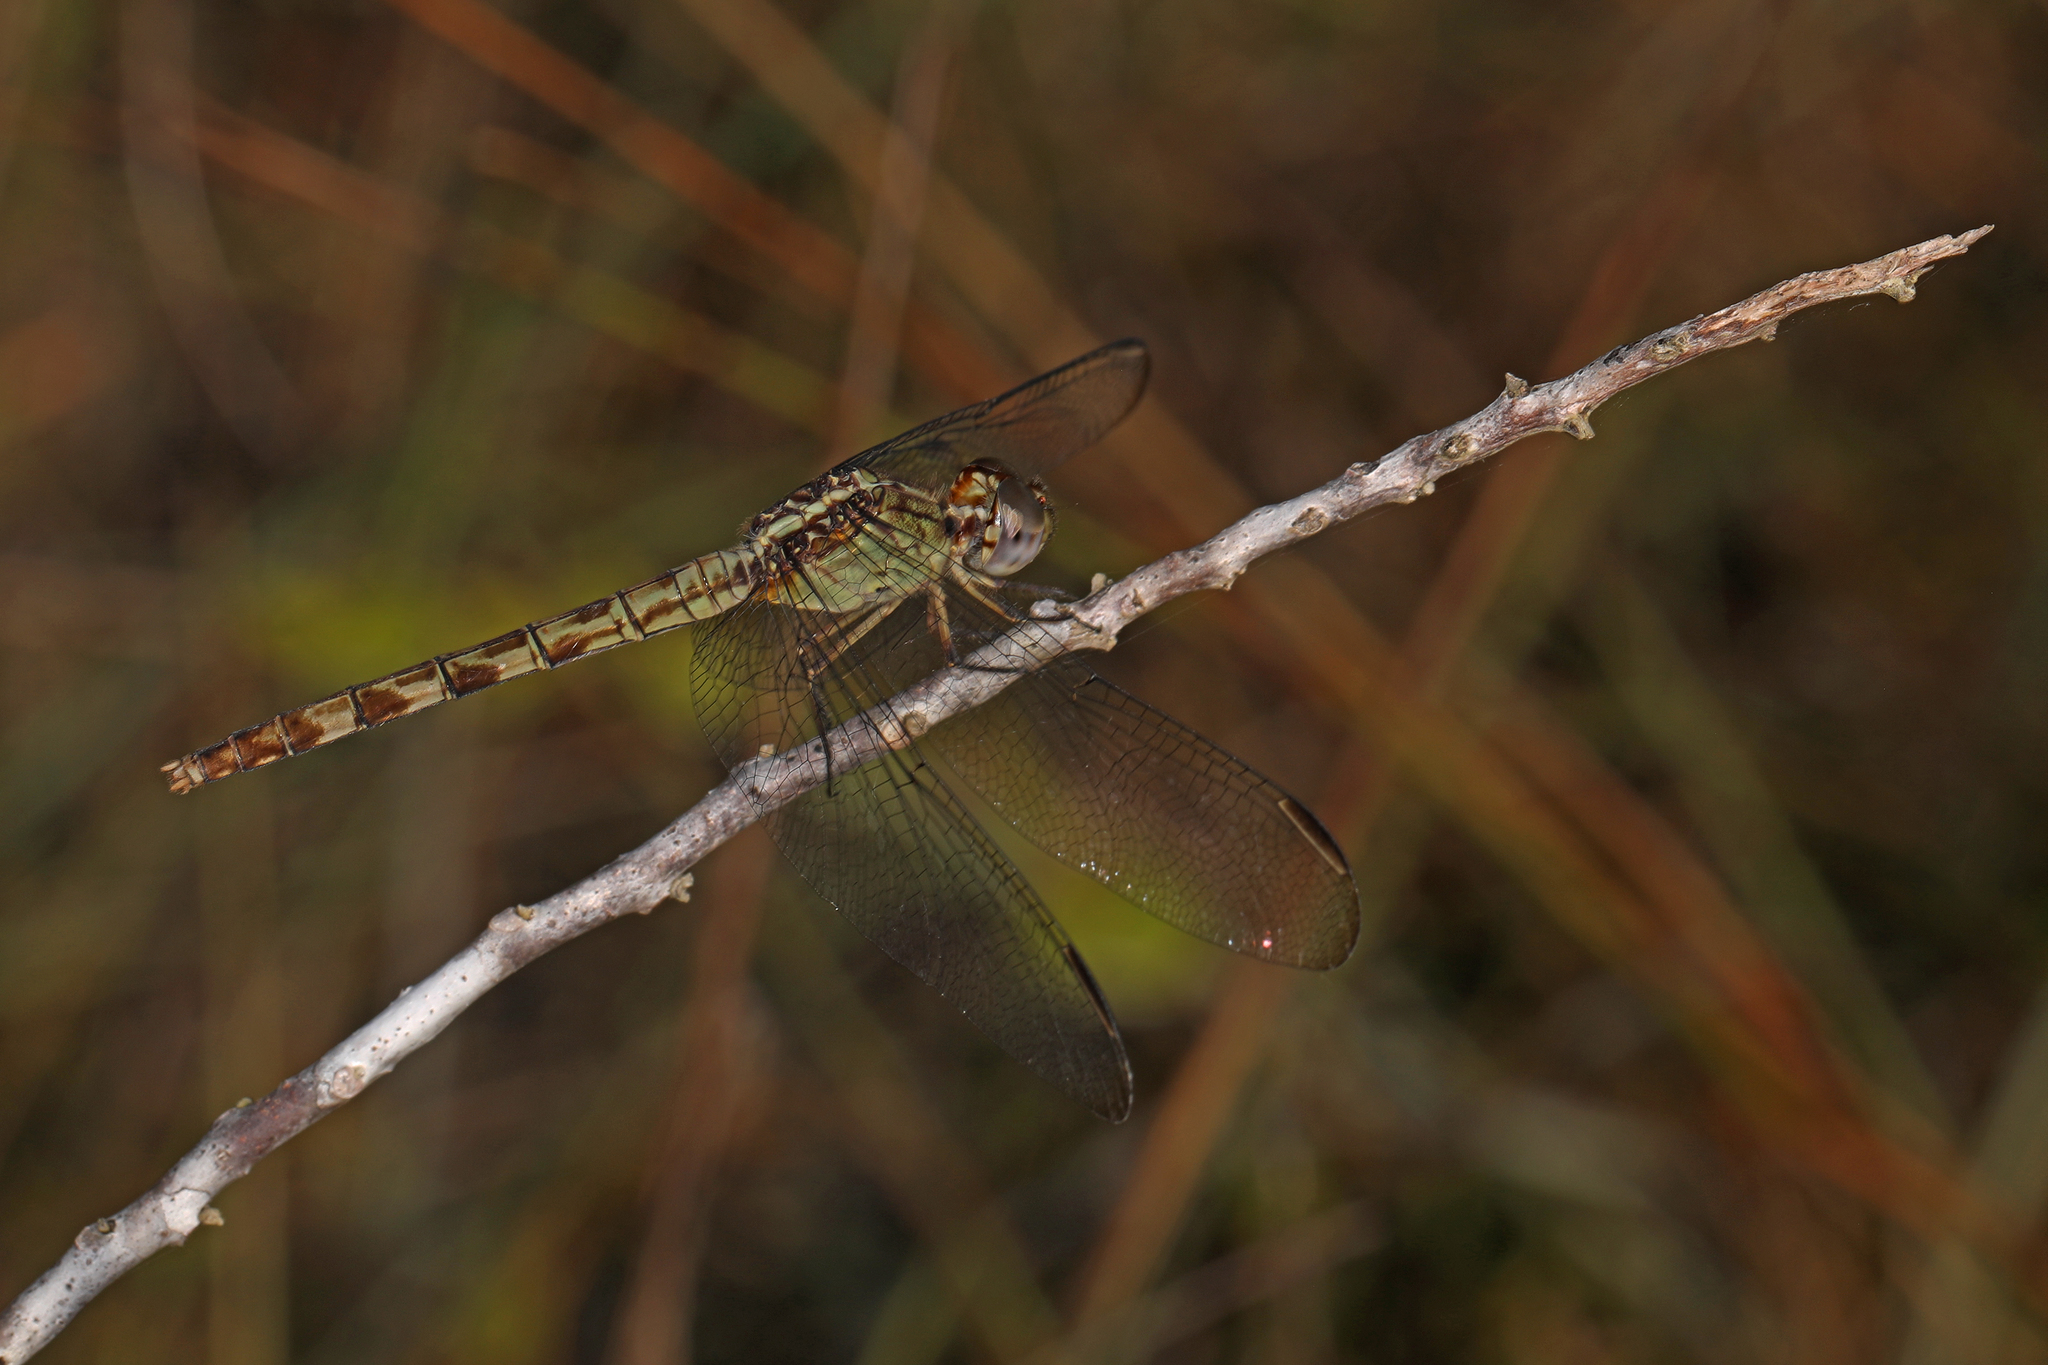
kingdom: Animalia
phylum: Arthropoda
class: Insecta
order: Odonata
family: Libellulidae
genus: Erythrodiplax
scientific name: Erythrodiplax umbrata
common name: Band-winged dragonlet
